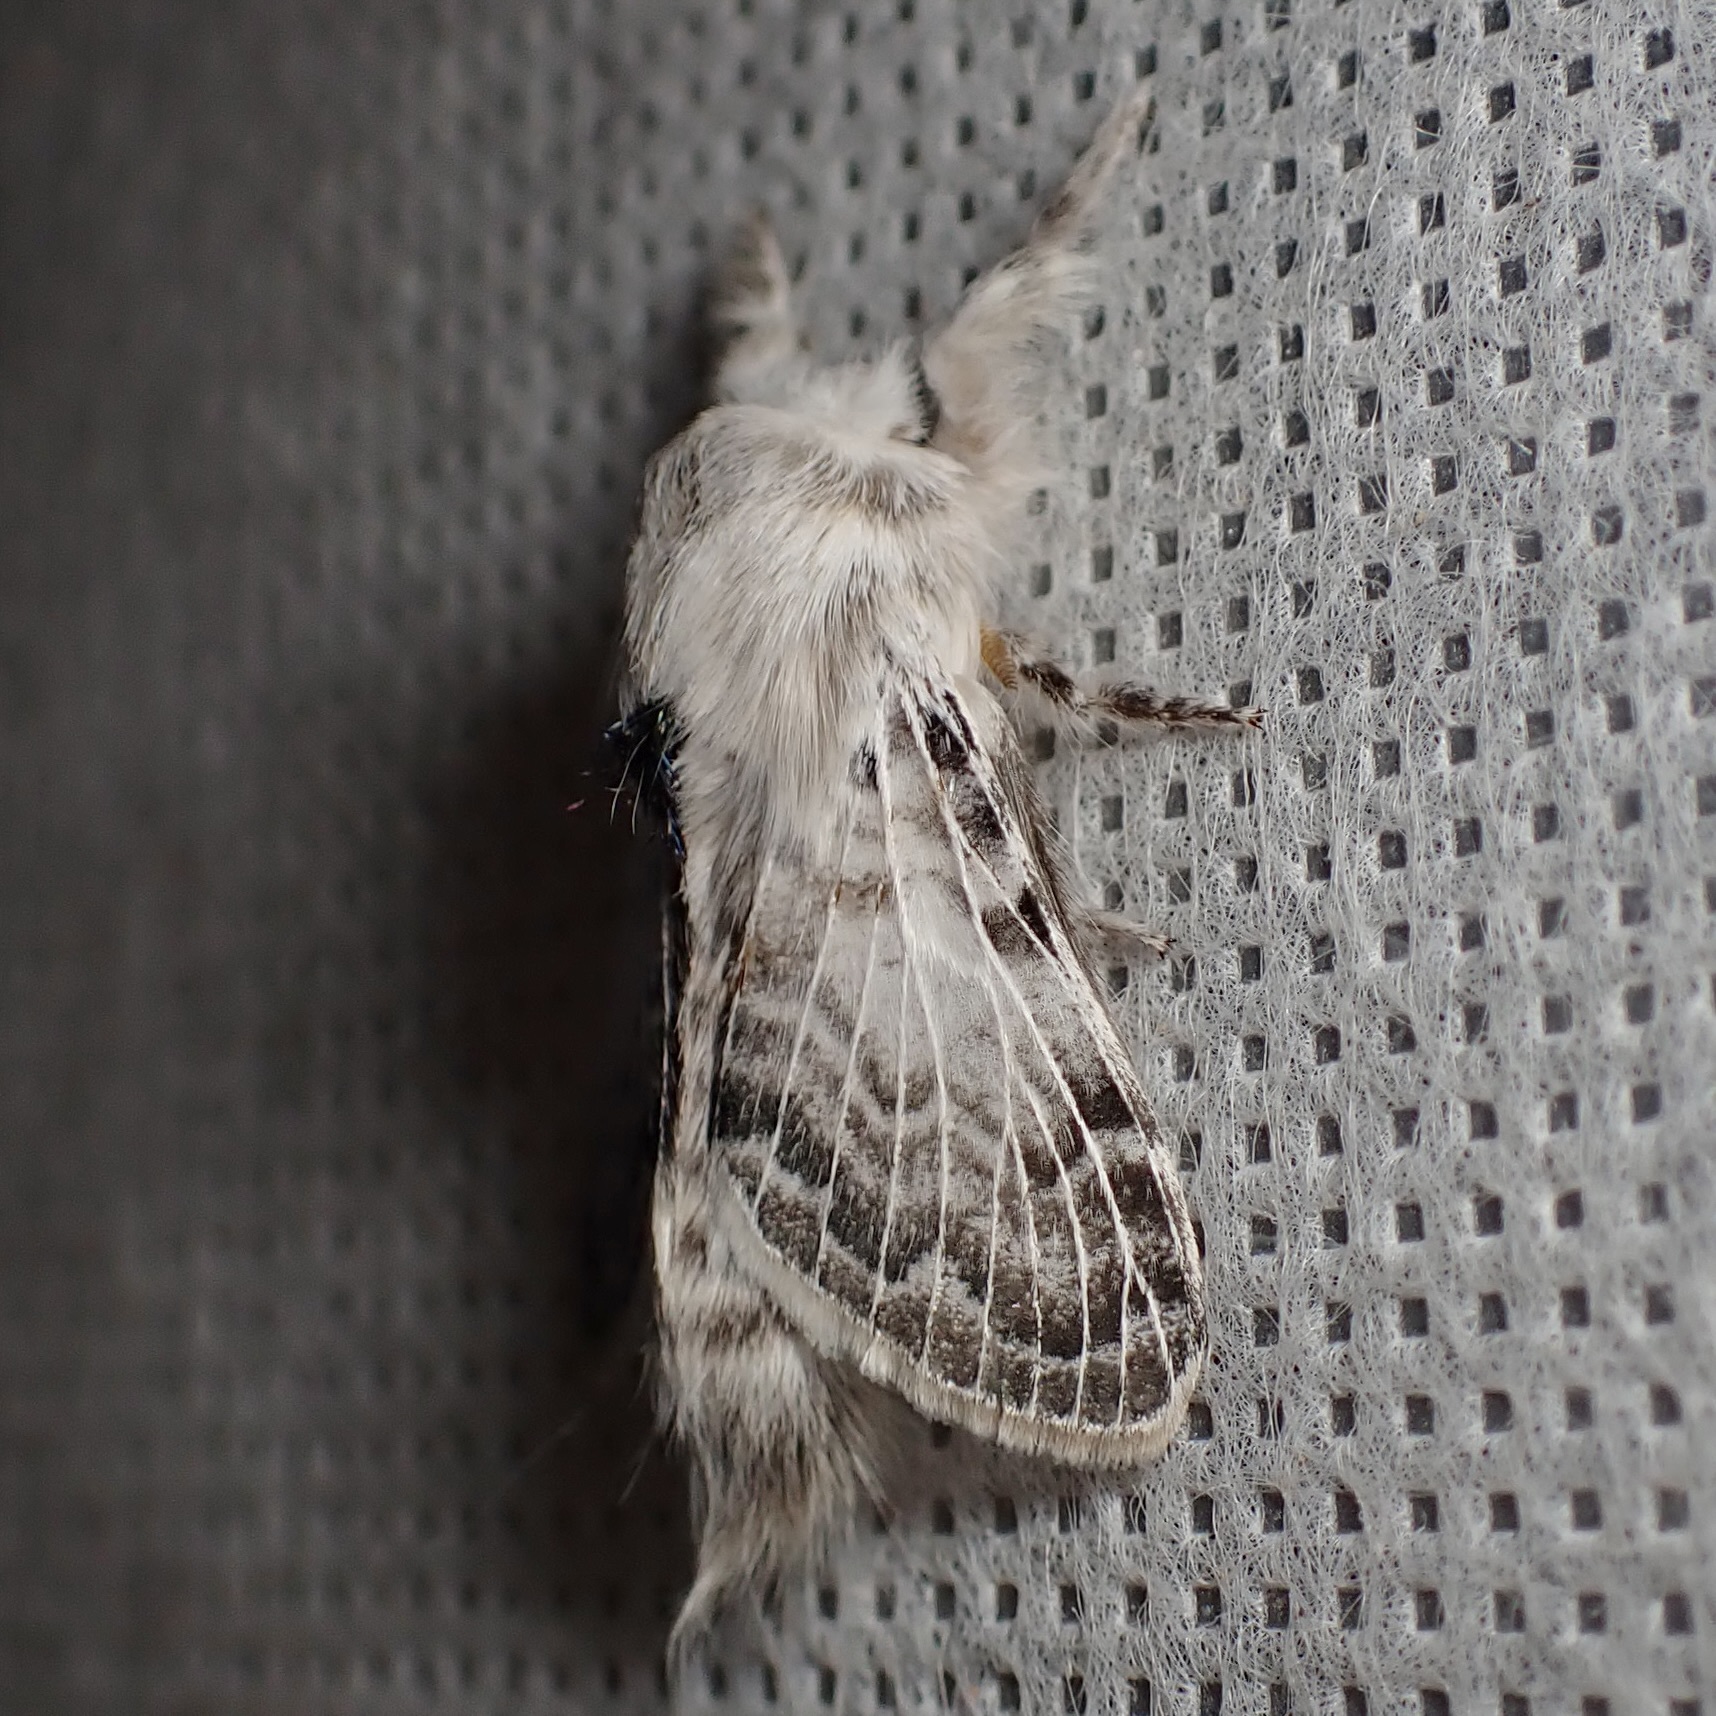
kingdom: Animalia
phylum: Arthropoda
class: Insecta
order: Lepidoptera
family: Lasiocampidae
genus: Apotolype
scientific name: Apotolype brevicrista
